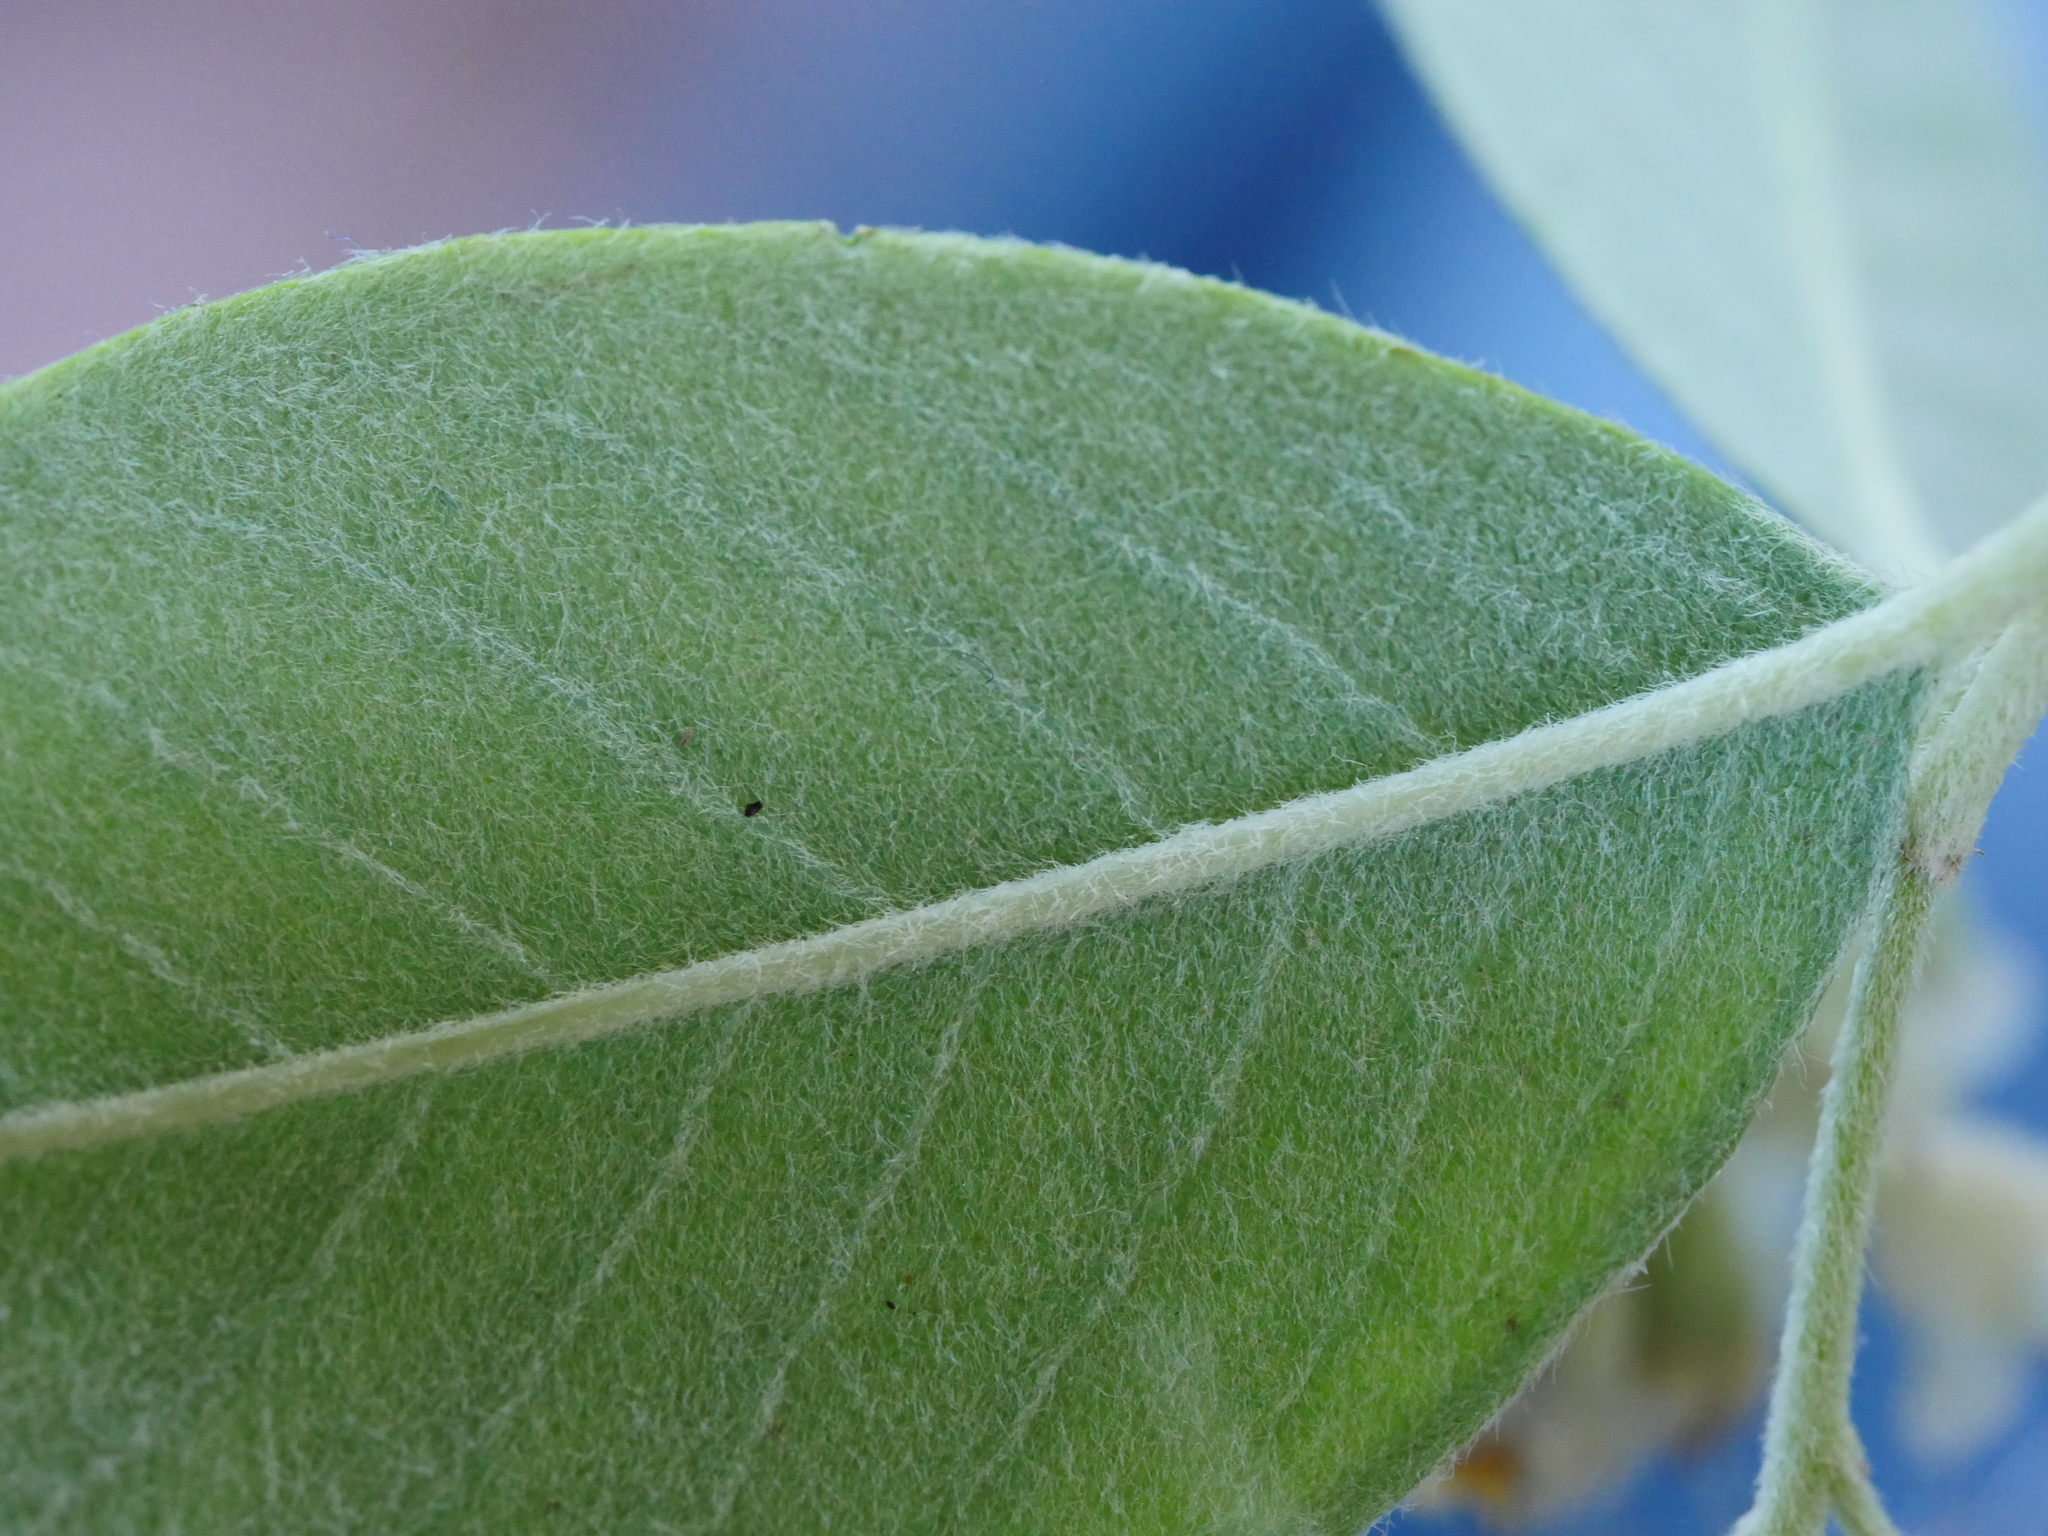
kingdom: Plantae
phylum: Tracheophyta
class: Magnoliopsida
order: Rosales
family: Rosaceae
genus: Cotoneaster
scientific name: Cotoneaster glaucophyllus
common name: Glaucous cotoneaster
